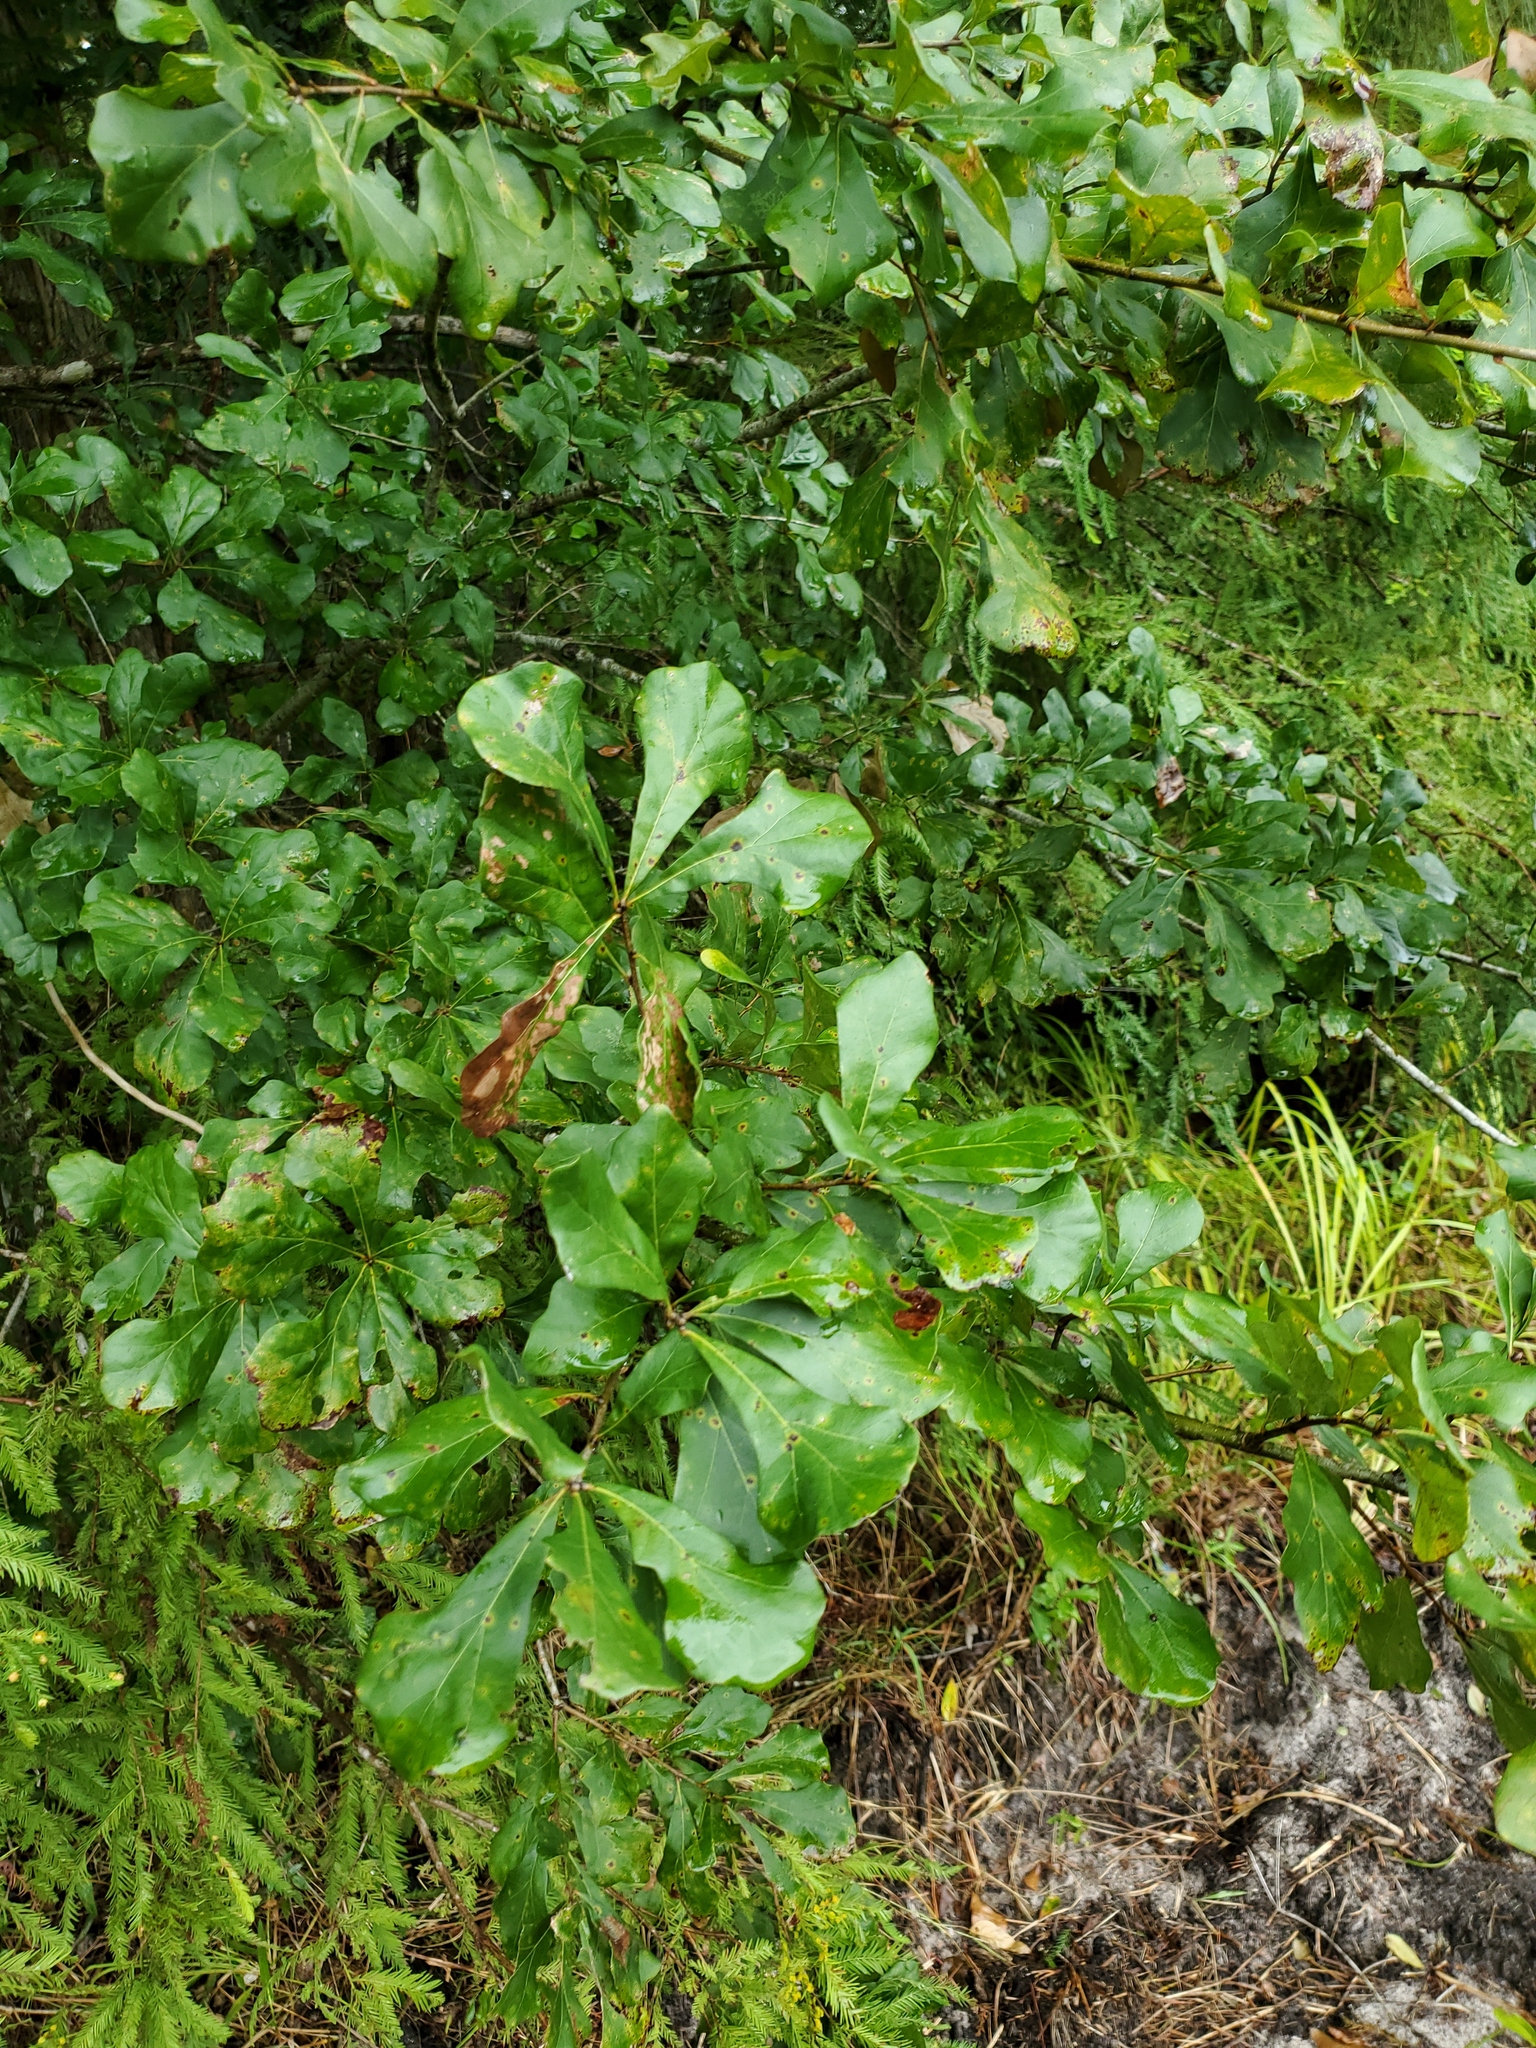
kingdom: Plantae
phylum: Tracheophyta
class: Magnoliopsida
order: Fagales
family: Fagaceae
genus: Quercus
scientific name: Quercus nigra
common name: Water oak
